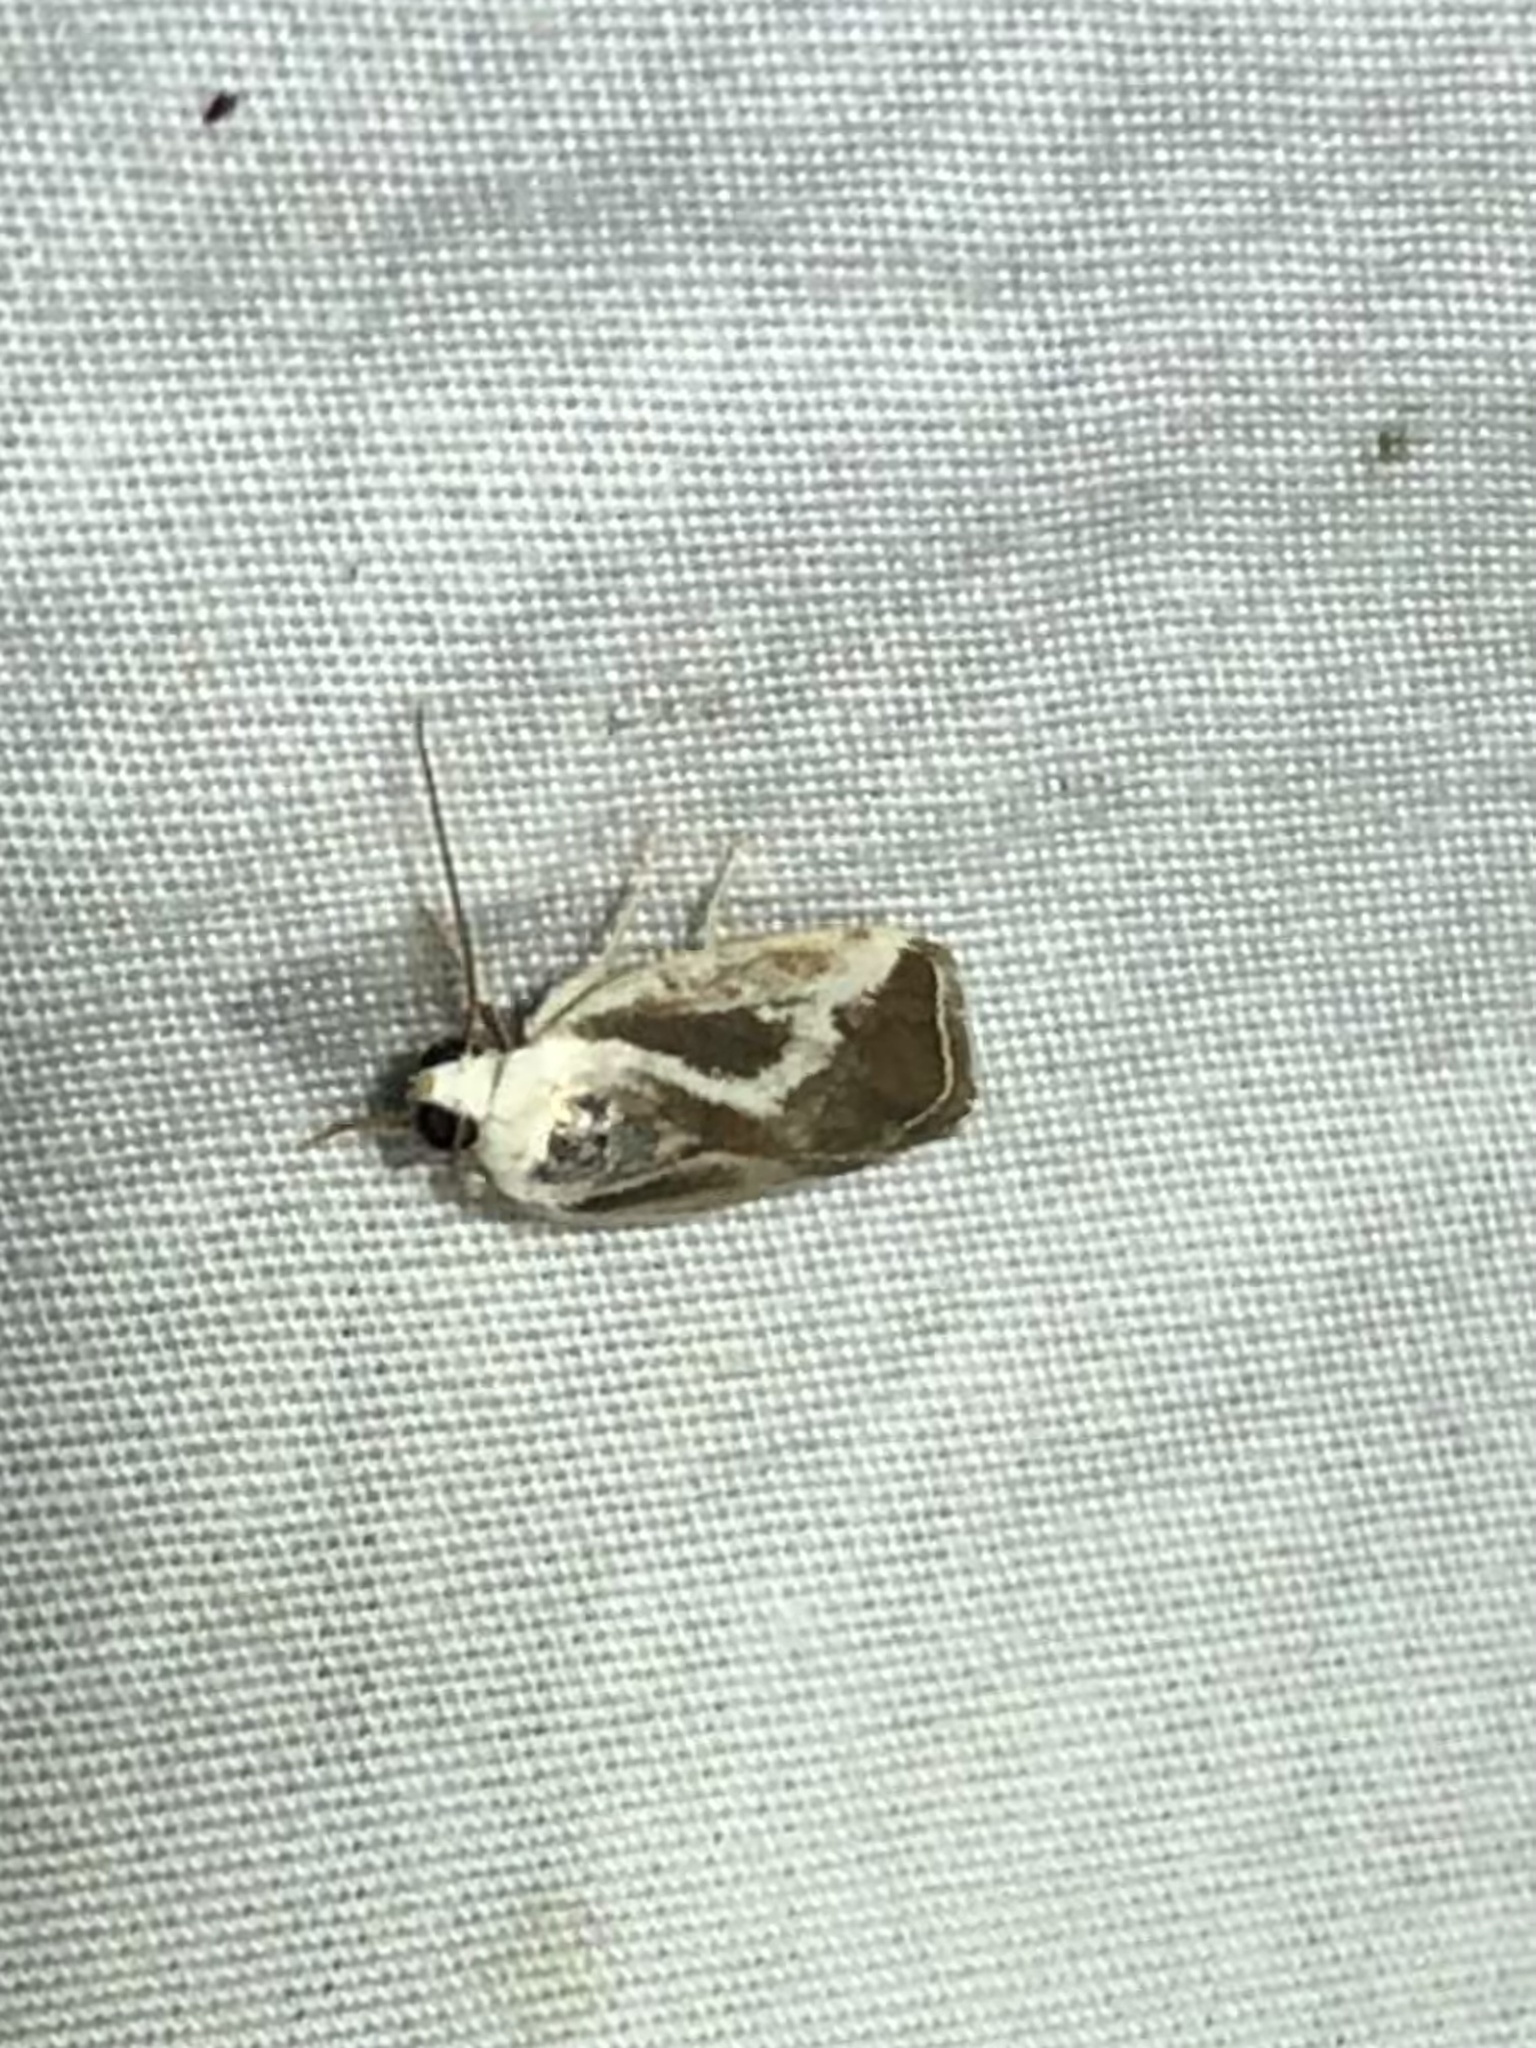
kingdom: Animalia
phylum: Arthropoda
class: Insecta
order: Lepidoptera
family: Noctuidae
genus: Acontia
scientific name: Acontia alata
